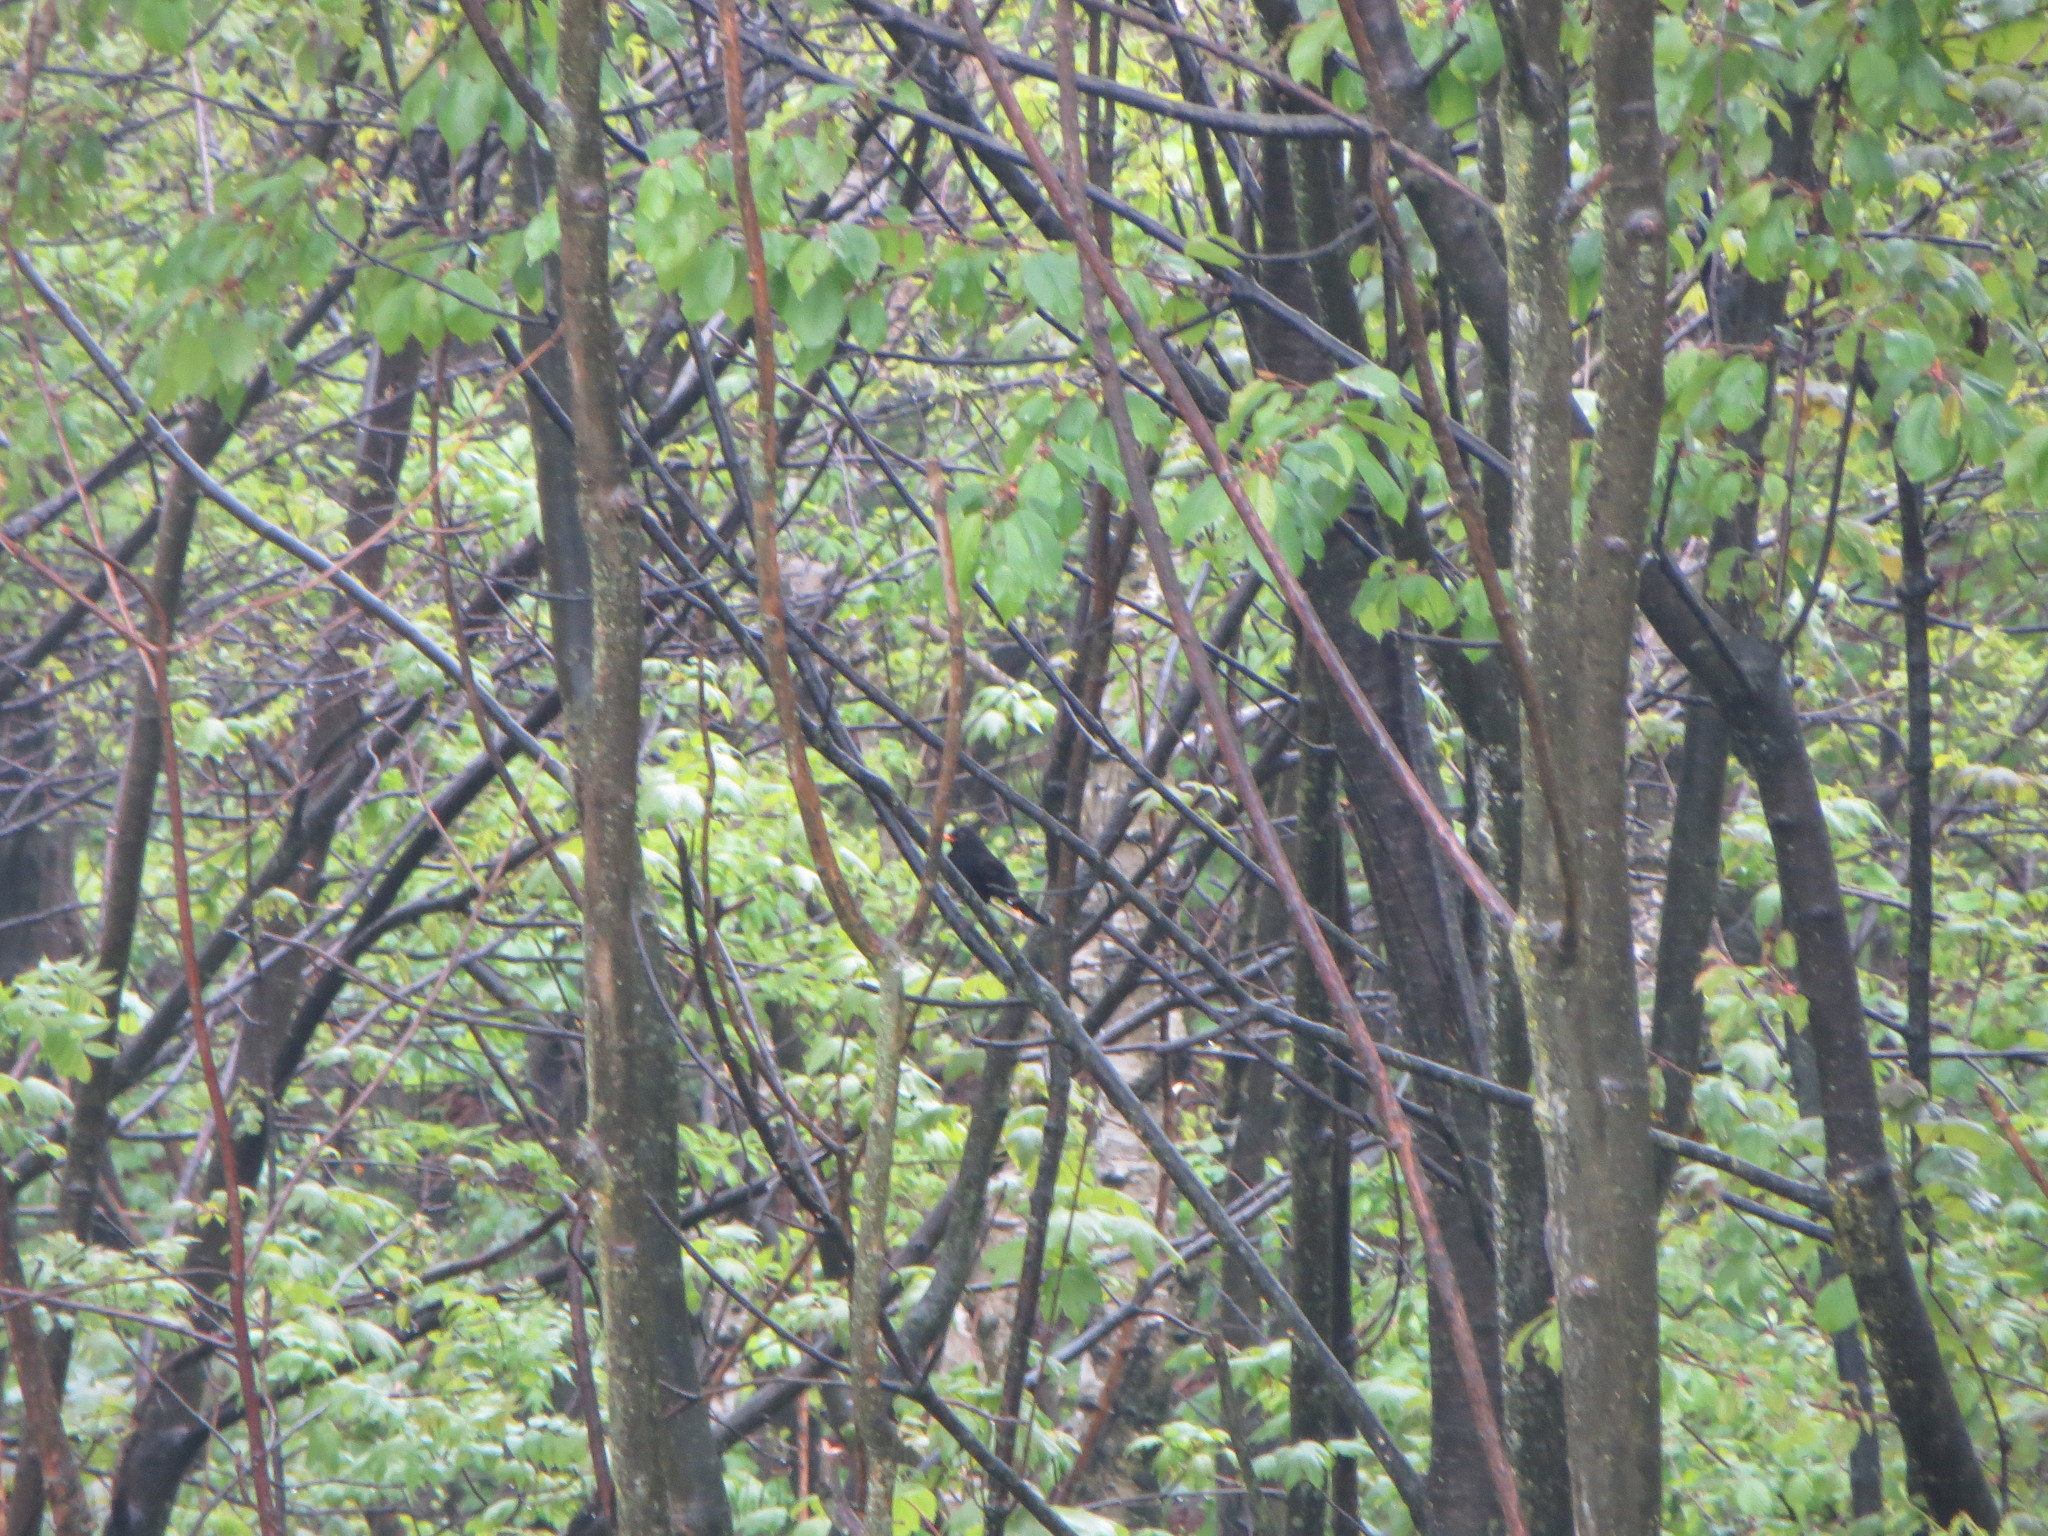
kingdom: Animalia
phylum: Chordata
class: Aves
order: Passeriformes
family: Turdidae
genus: Turdus
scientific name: Turdus merula
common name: Common blackbird
